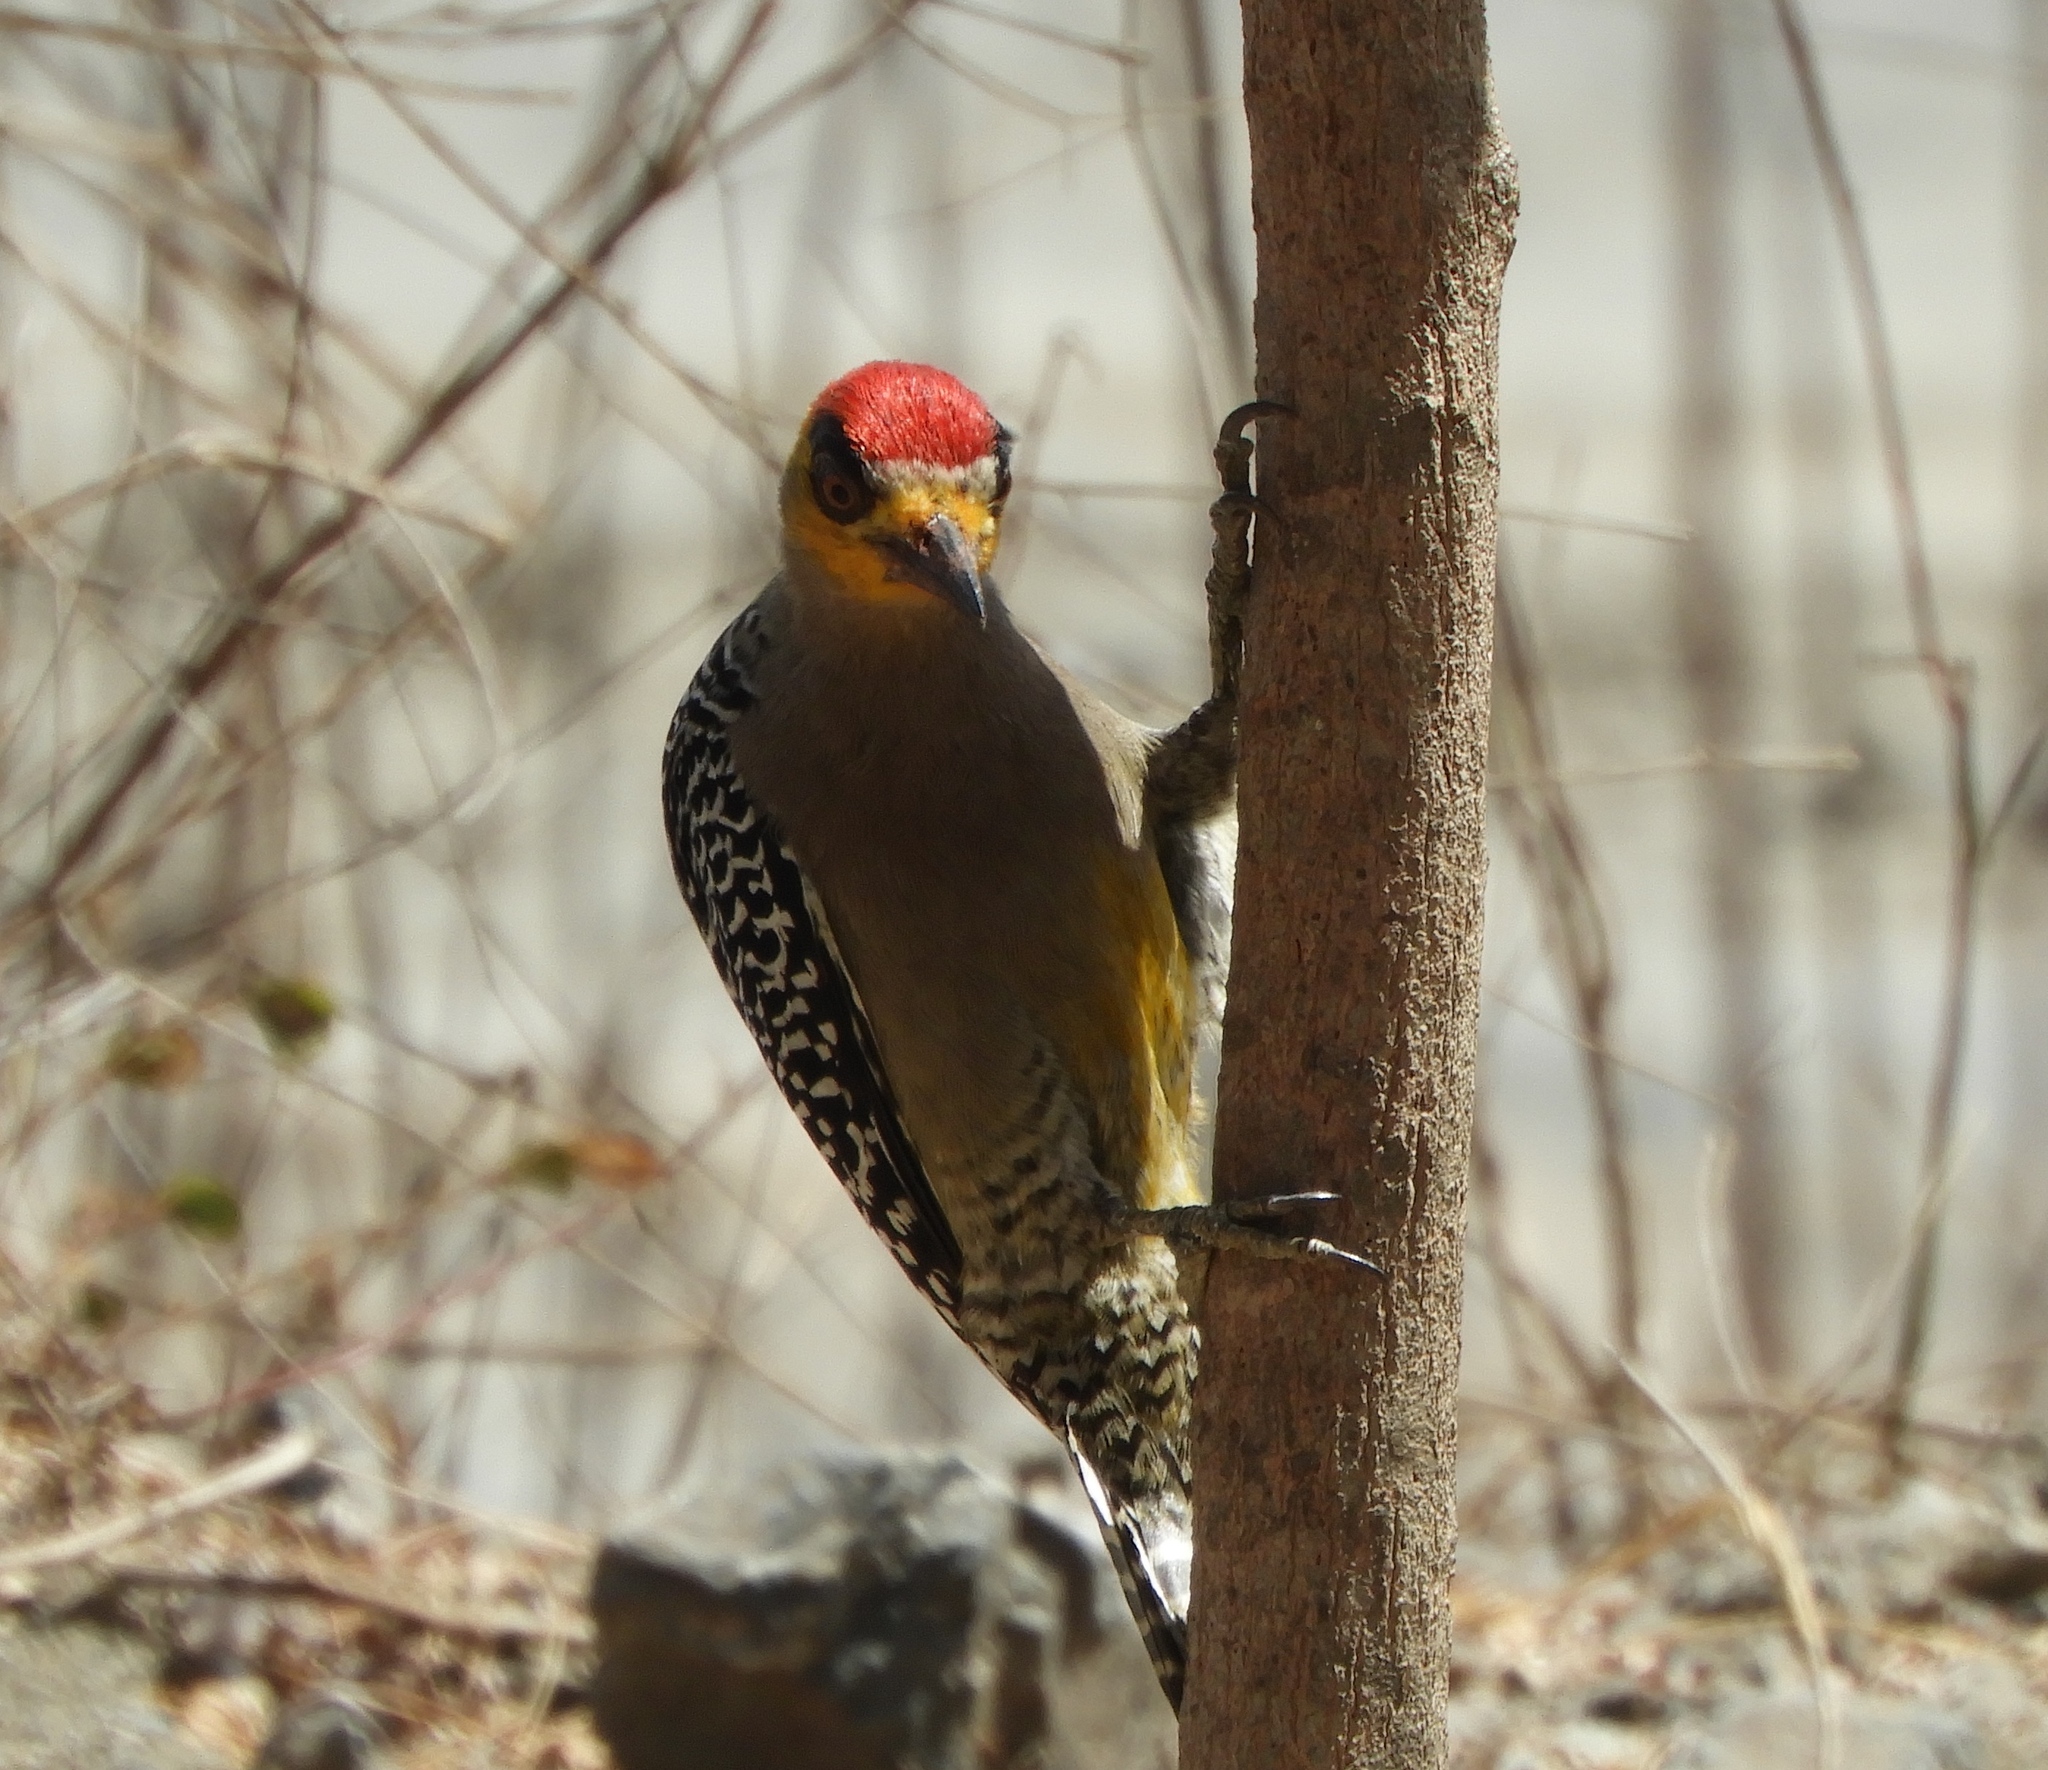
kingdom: Animalia
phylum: Chordata
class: Aves
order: Piciformes
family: Picidae
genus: Melanerpes
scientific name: Melanerpes chrysogenys
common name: Golden-cheeked woodpecker
